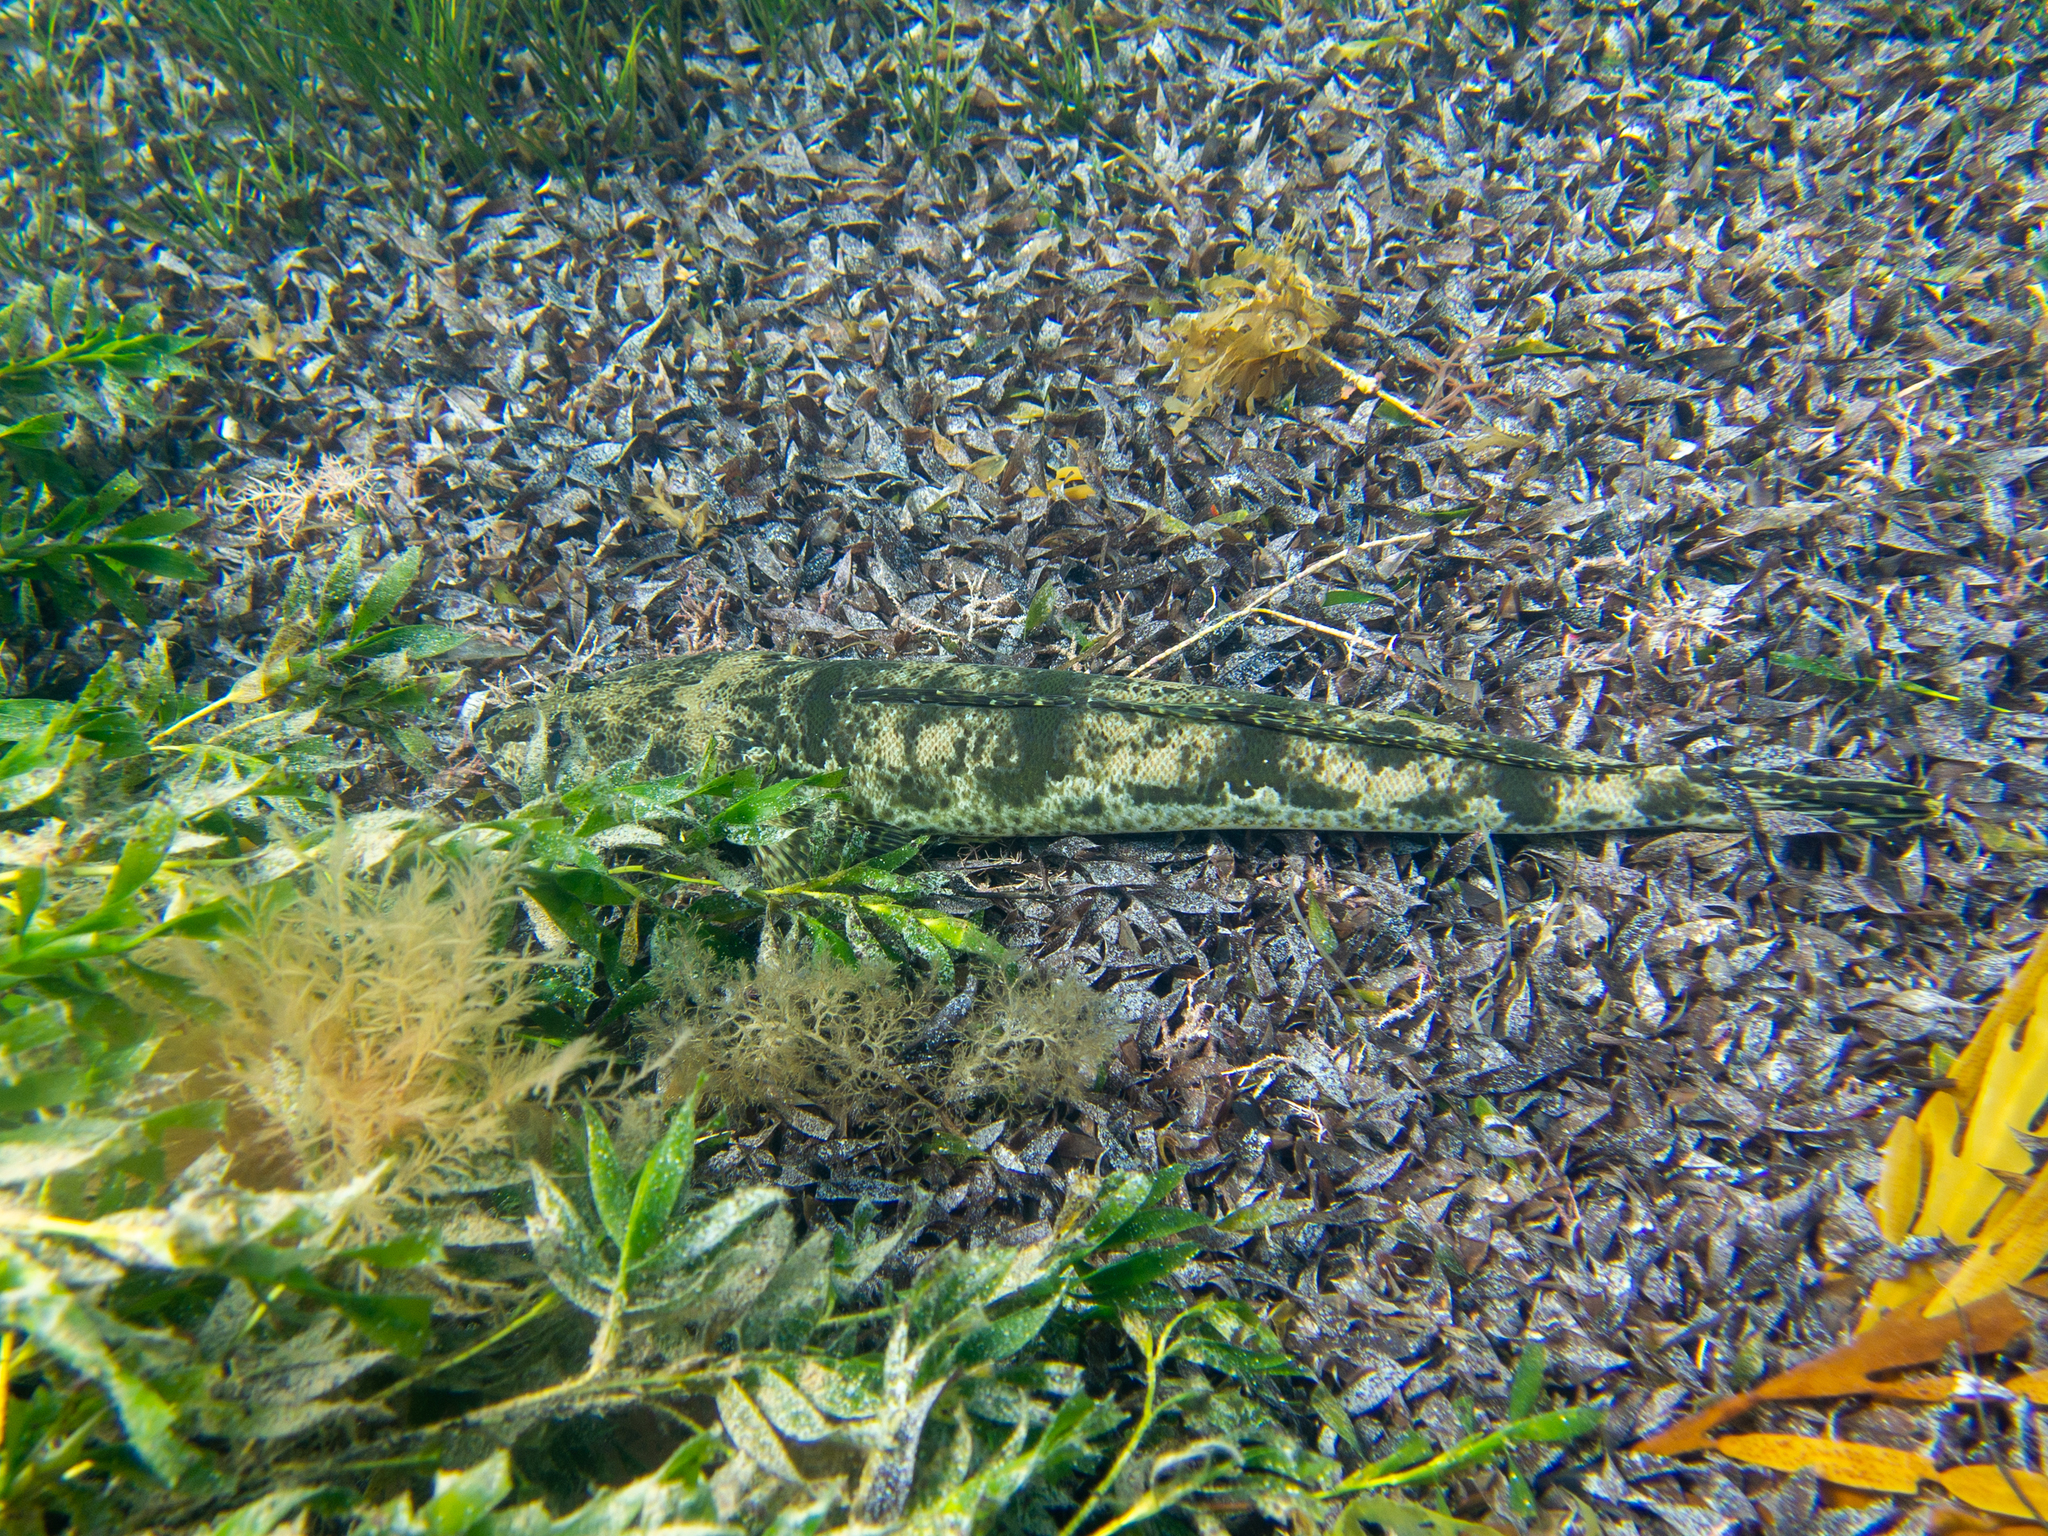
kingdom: Animalia
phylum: Chordata
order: Scorpaeniformes
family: Platycephalidae
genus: Platycephalus
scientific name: Platycephalus laevigatus
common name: Rock flathead
